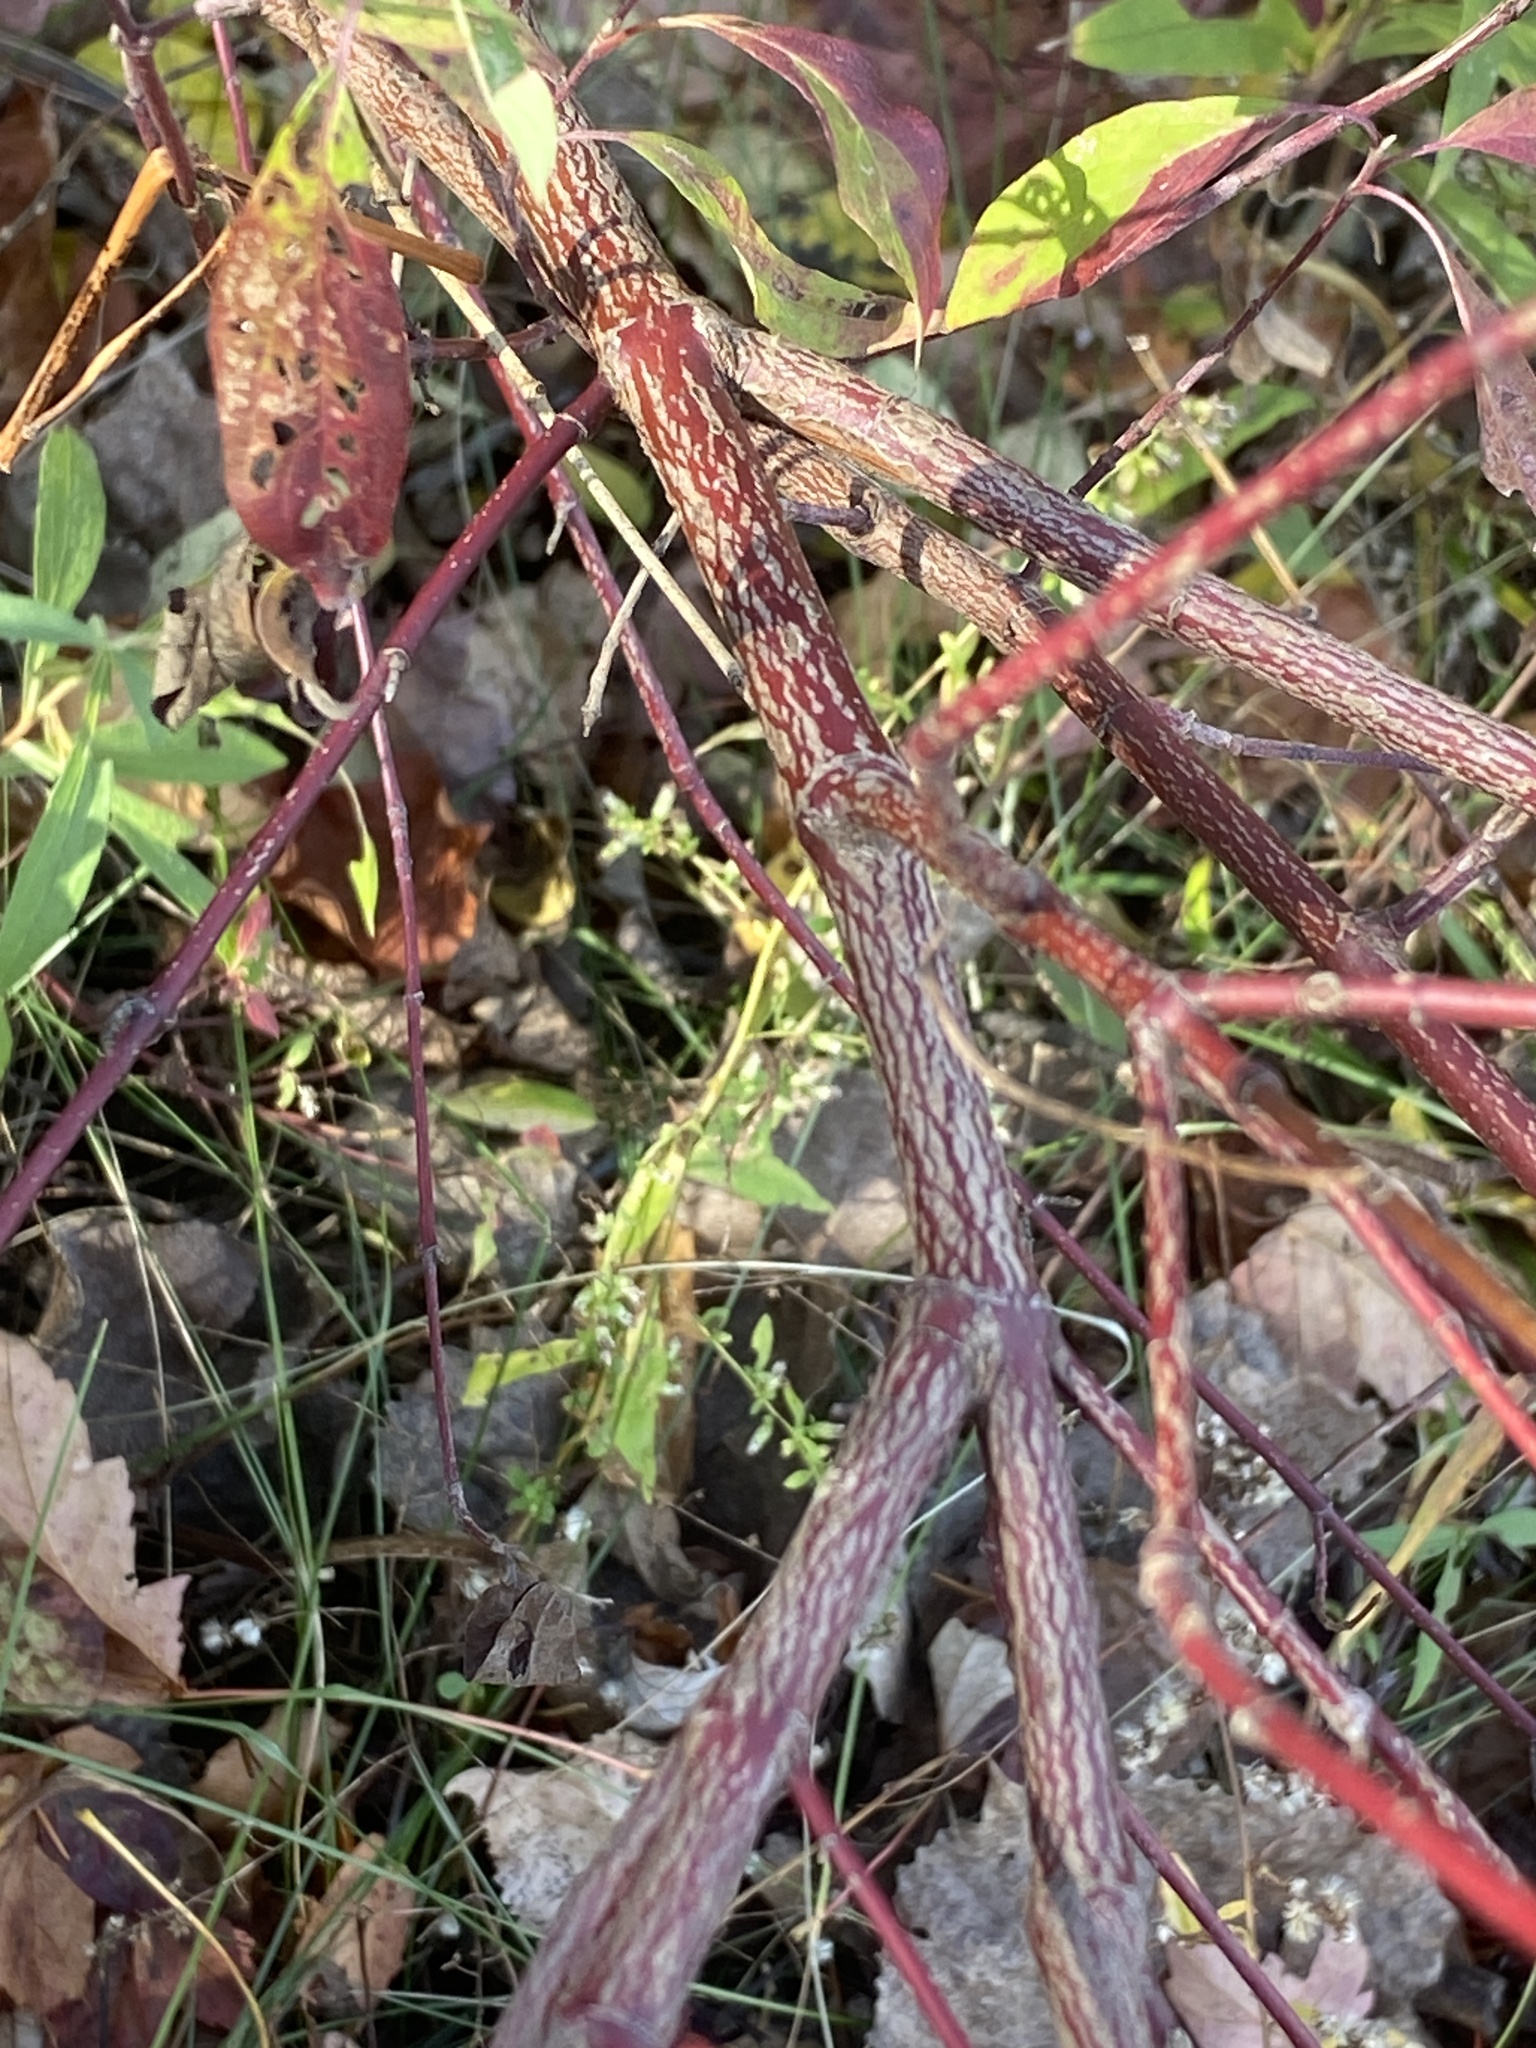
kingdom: Plantae
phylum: Tracheophyta
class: Magnoliopsida
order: Cornales
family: Cornaceae
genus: Cornus
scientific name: Cornus amomum
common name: Silky dogwood
